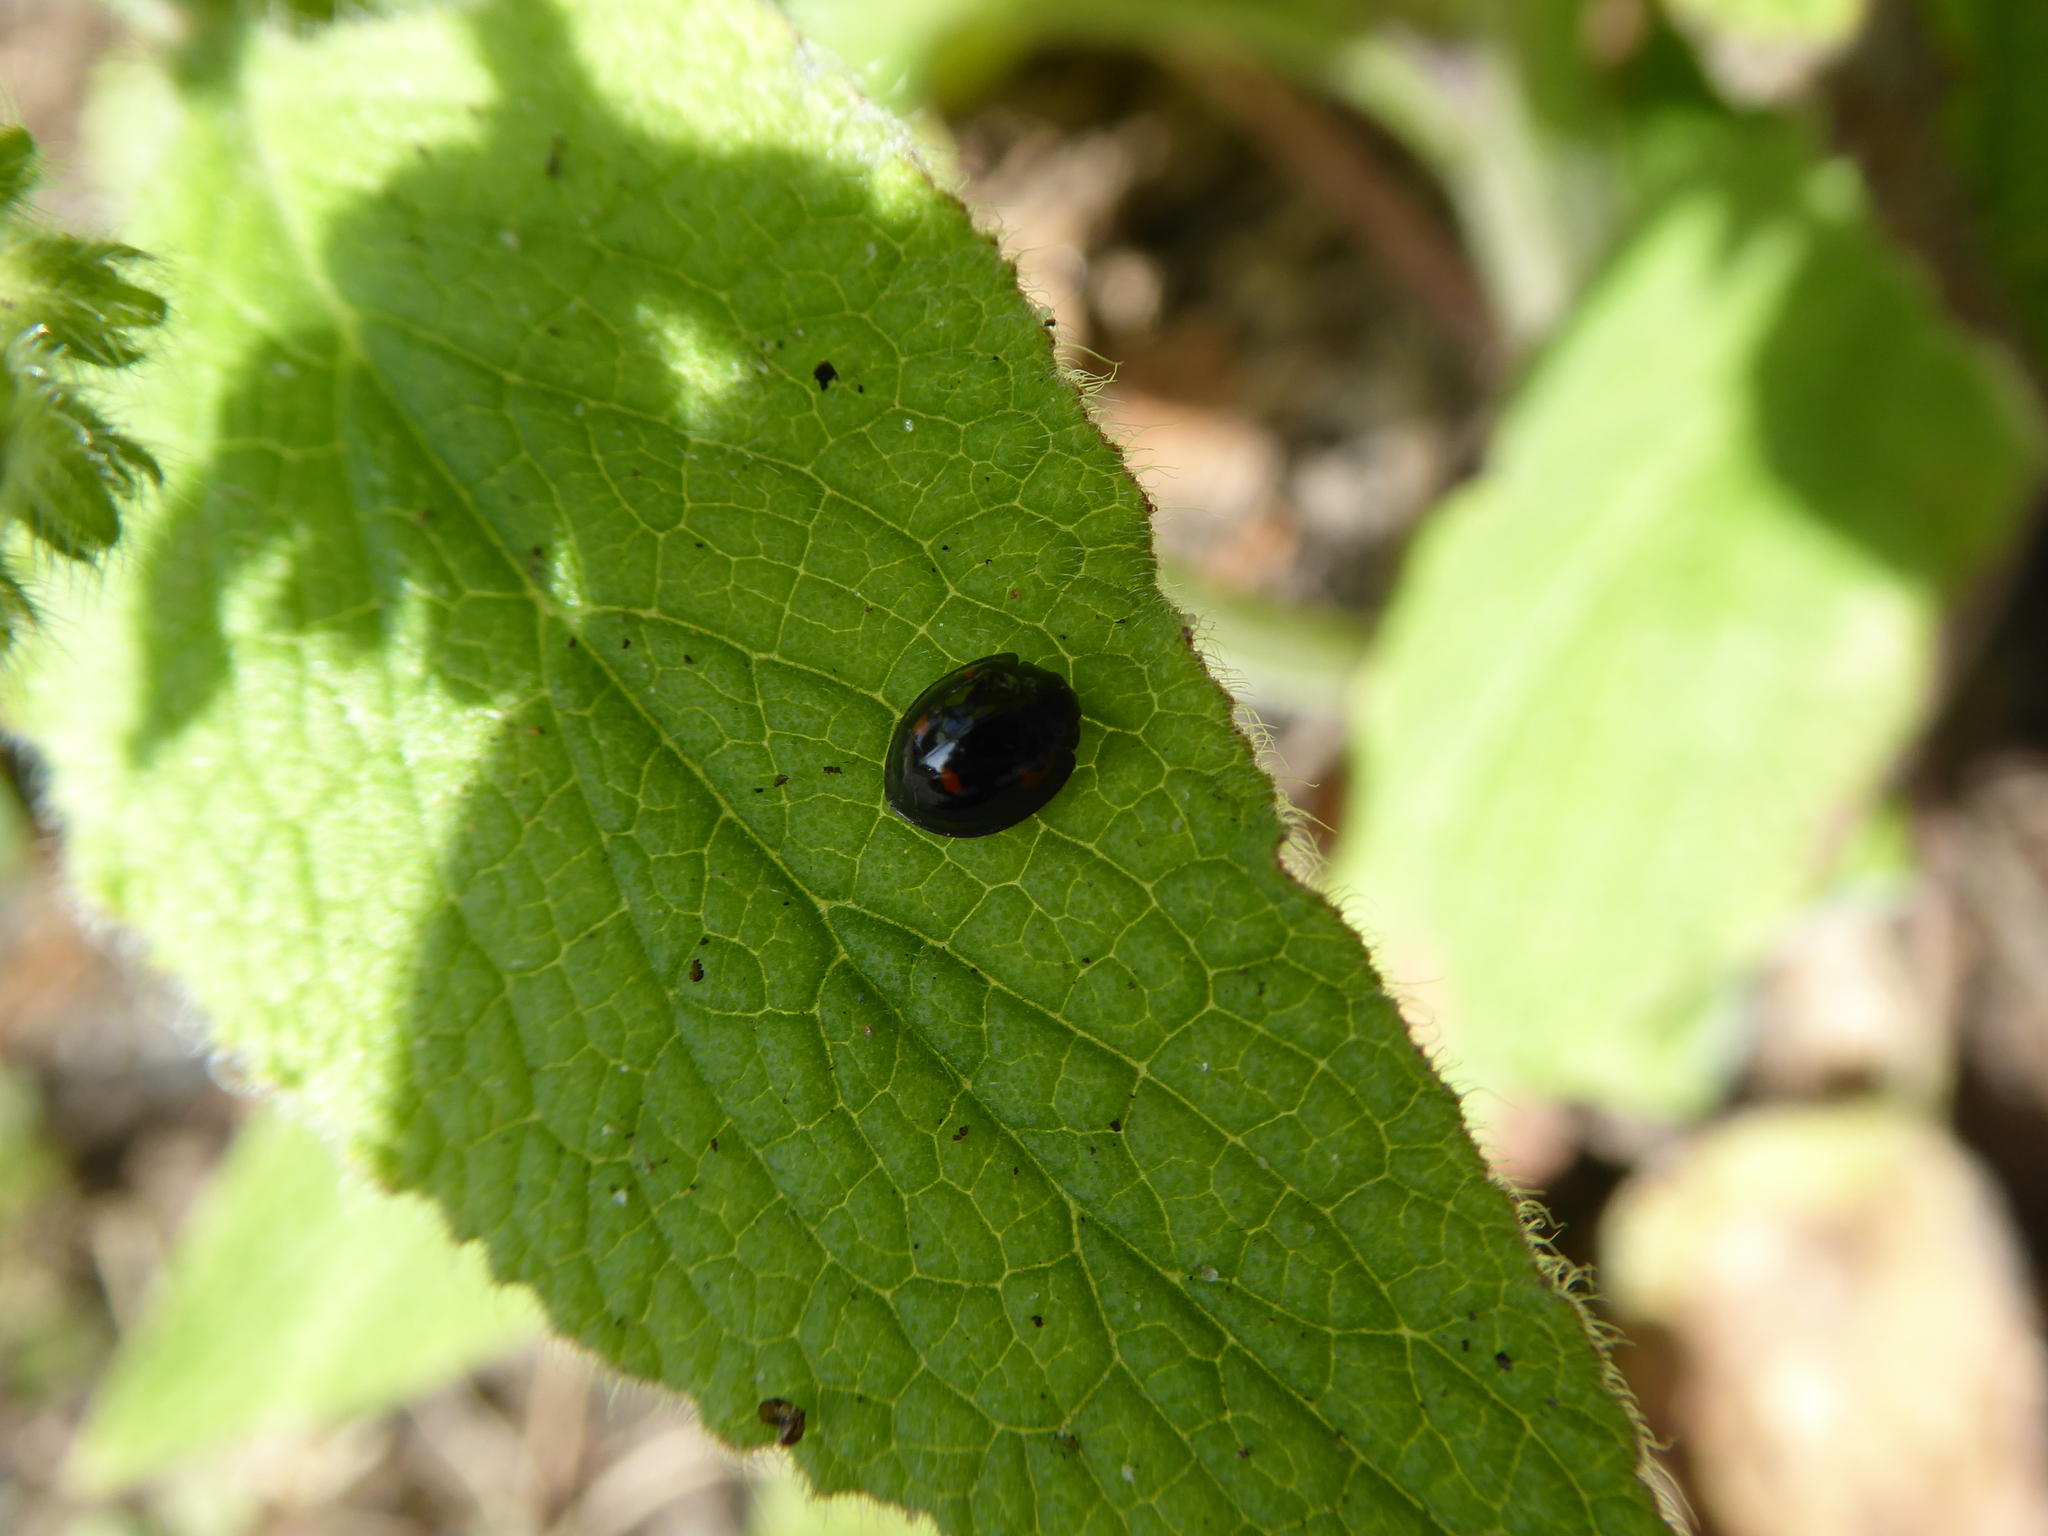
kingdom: Animalia
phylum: Arthropoda
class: Insecta
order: Coleoptera
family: Coccinellidae
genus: Brumus
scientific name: Brumus quadripustulatus
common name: Ladybird beetle
